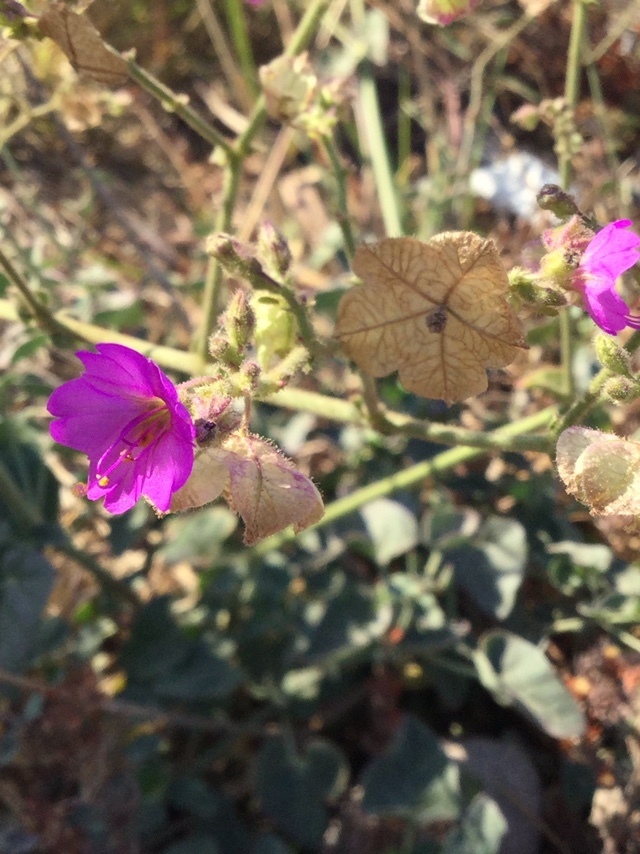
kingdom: Plantae
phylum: Tracheophyta
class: Magnoliopsida
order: Caryophyllales
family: Nyctaginaceae
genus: Mirabilis
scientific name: Mirabilis viscosa
